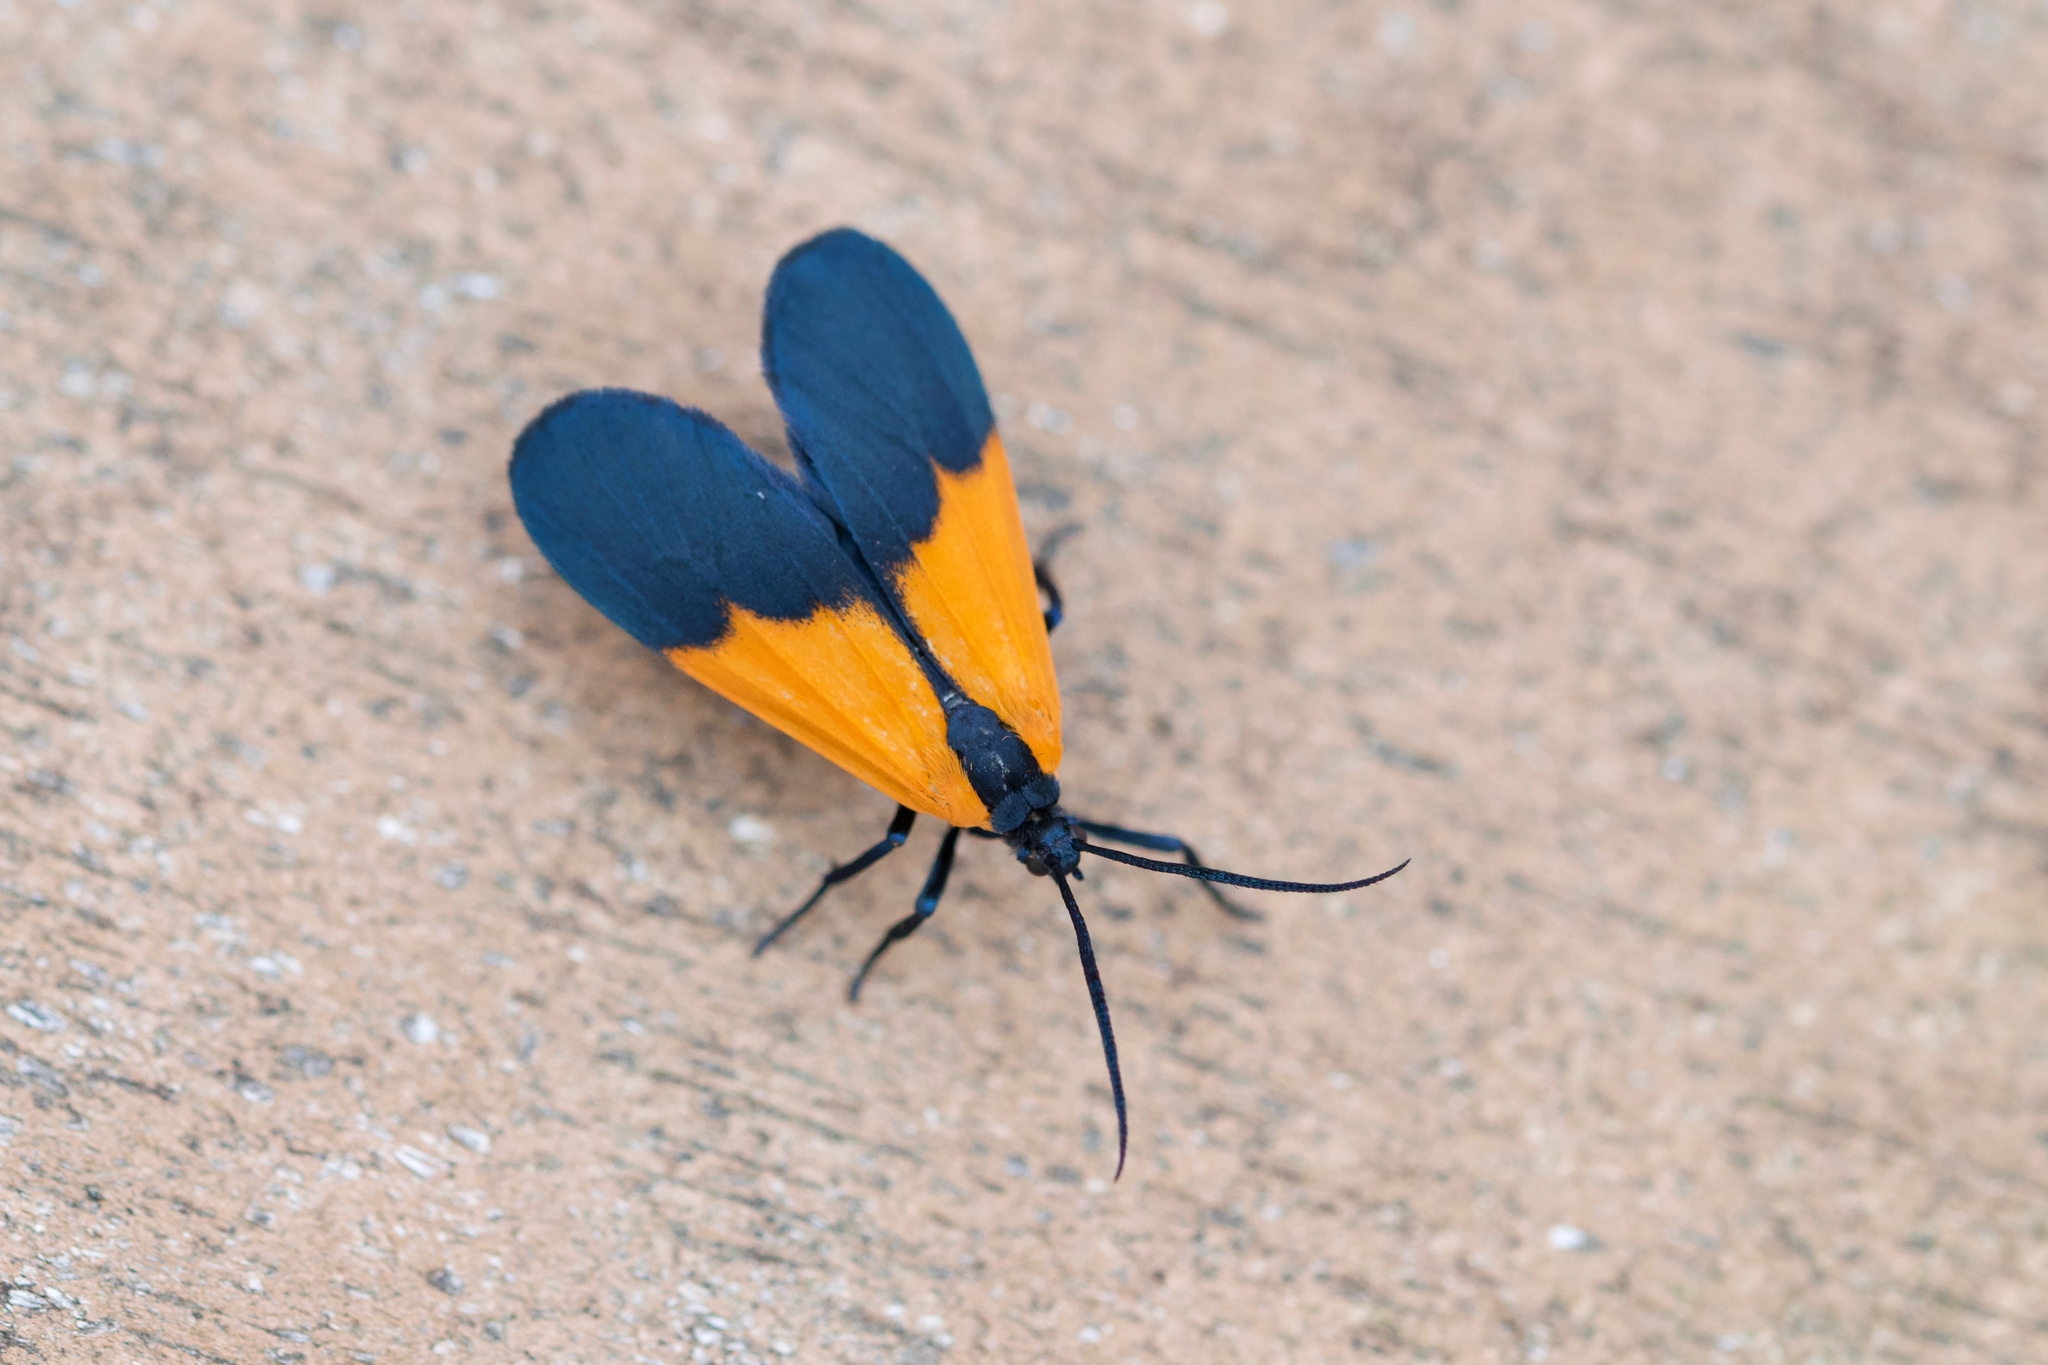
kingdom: Animalia
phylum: Arthropoda
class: Insecta
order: Lepidoptera
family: Erebidae
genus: Lycomorpha
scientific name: Lycomorpha pholus
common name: Black-and-yellow lichen moth
